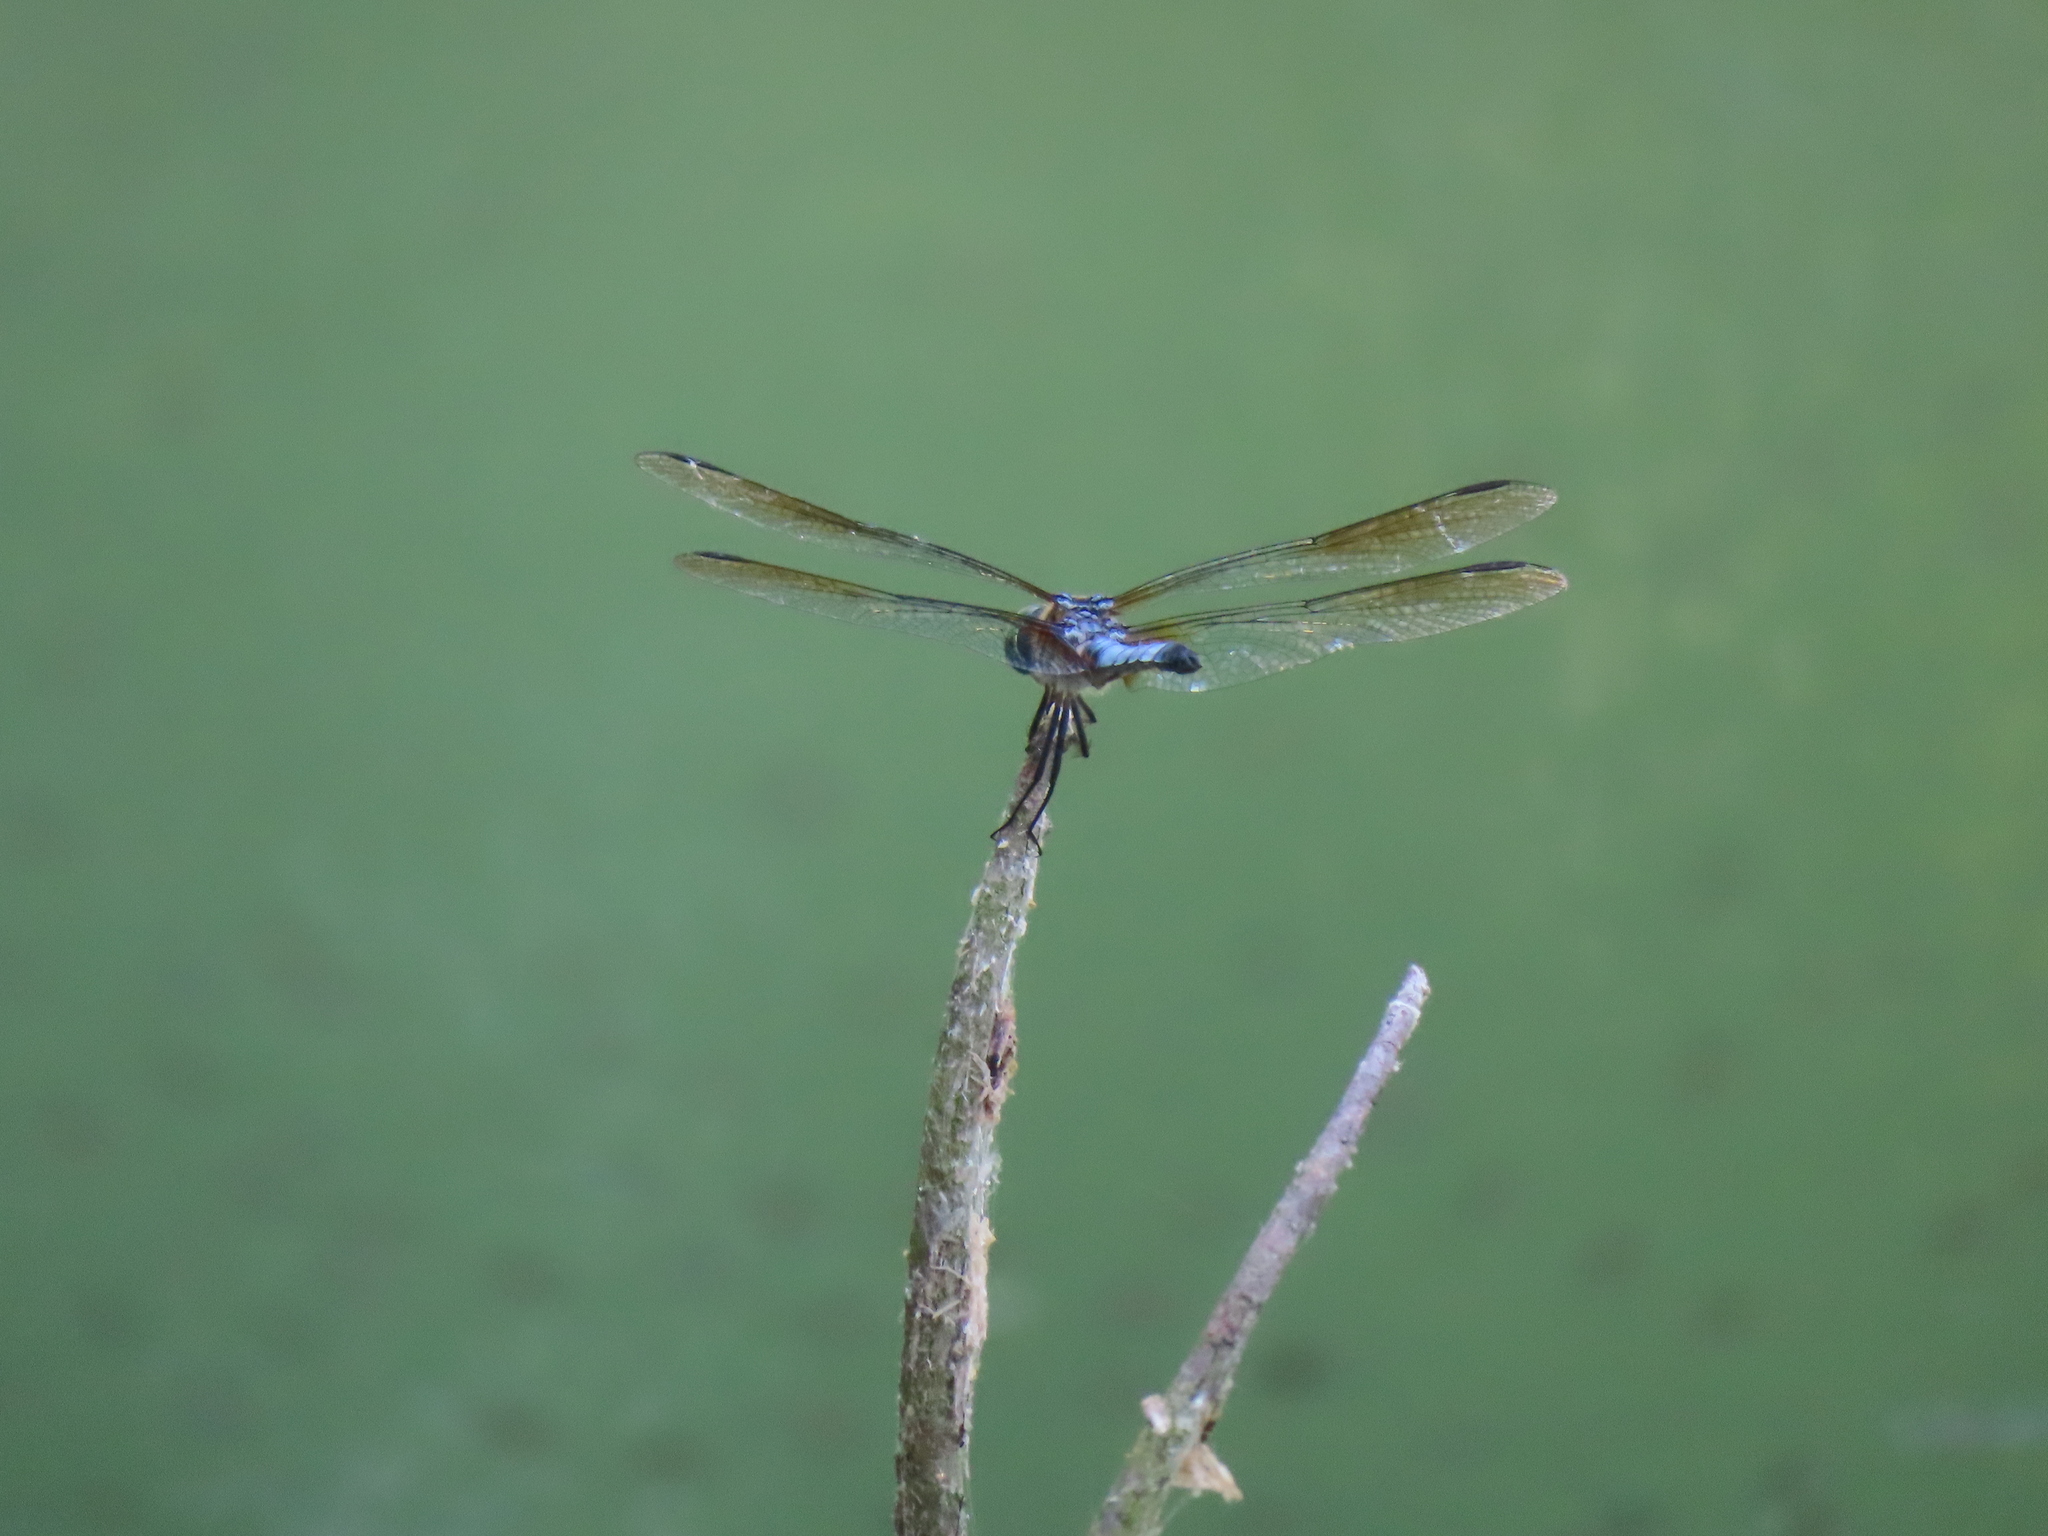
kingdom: Animalia
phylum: Arthropoda
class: Insecta
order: Odonata
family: Libellulidae
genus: Pachydiplax
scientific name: Pachydiplax longipennis
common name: Blue dasher
